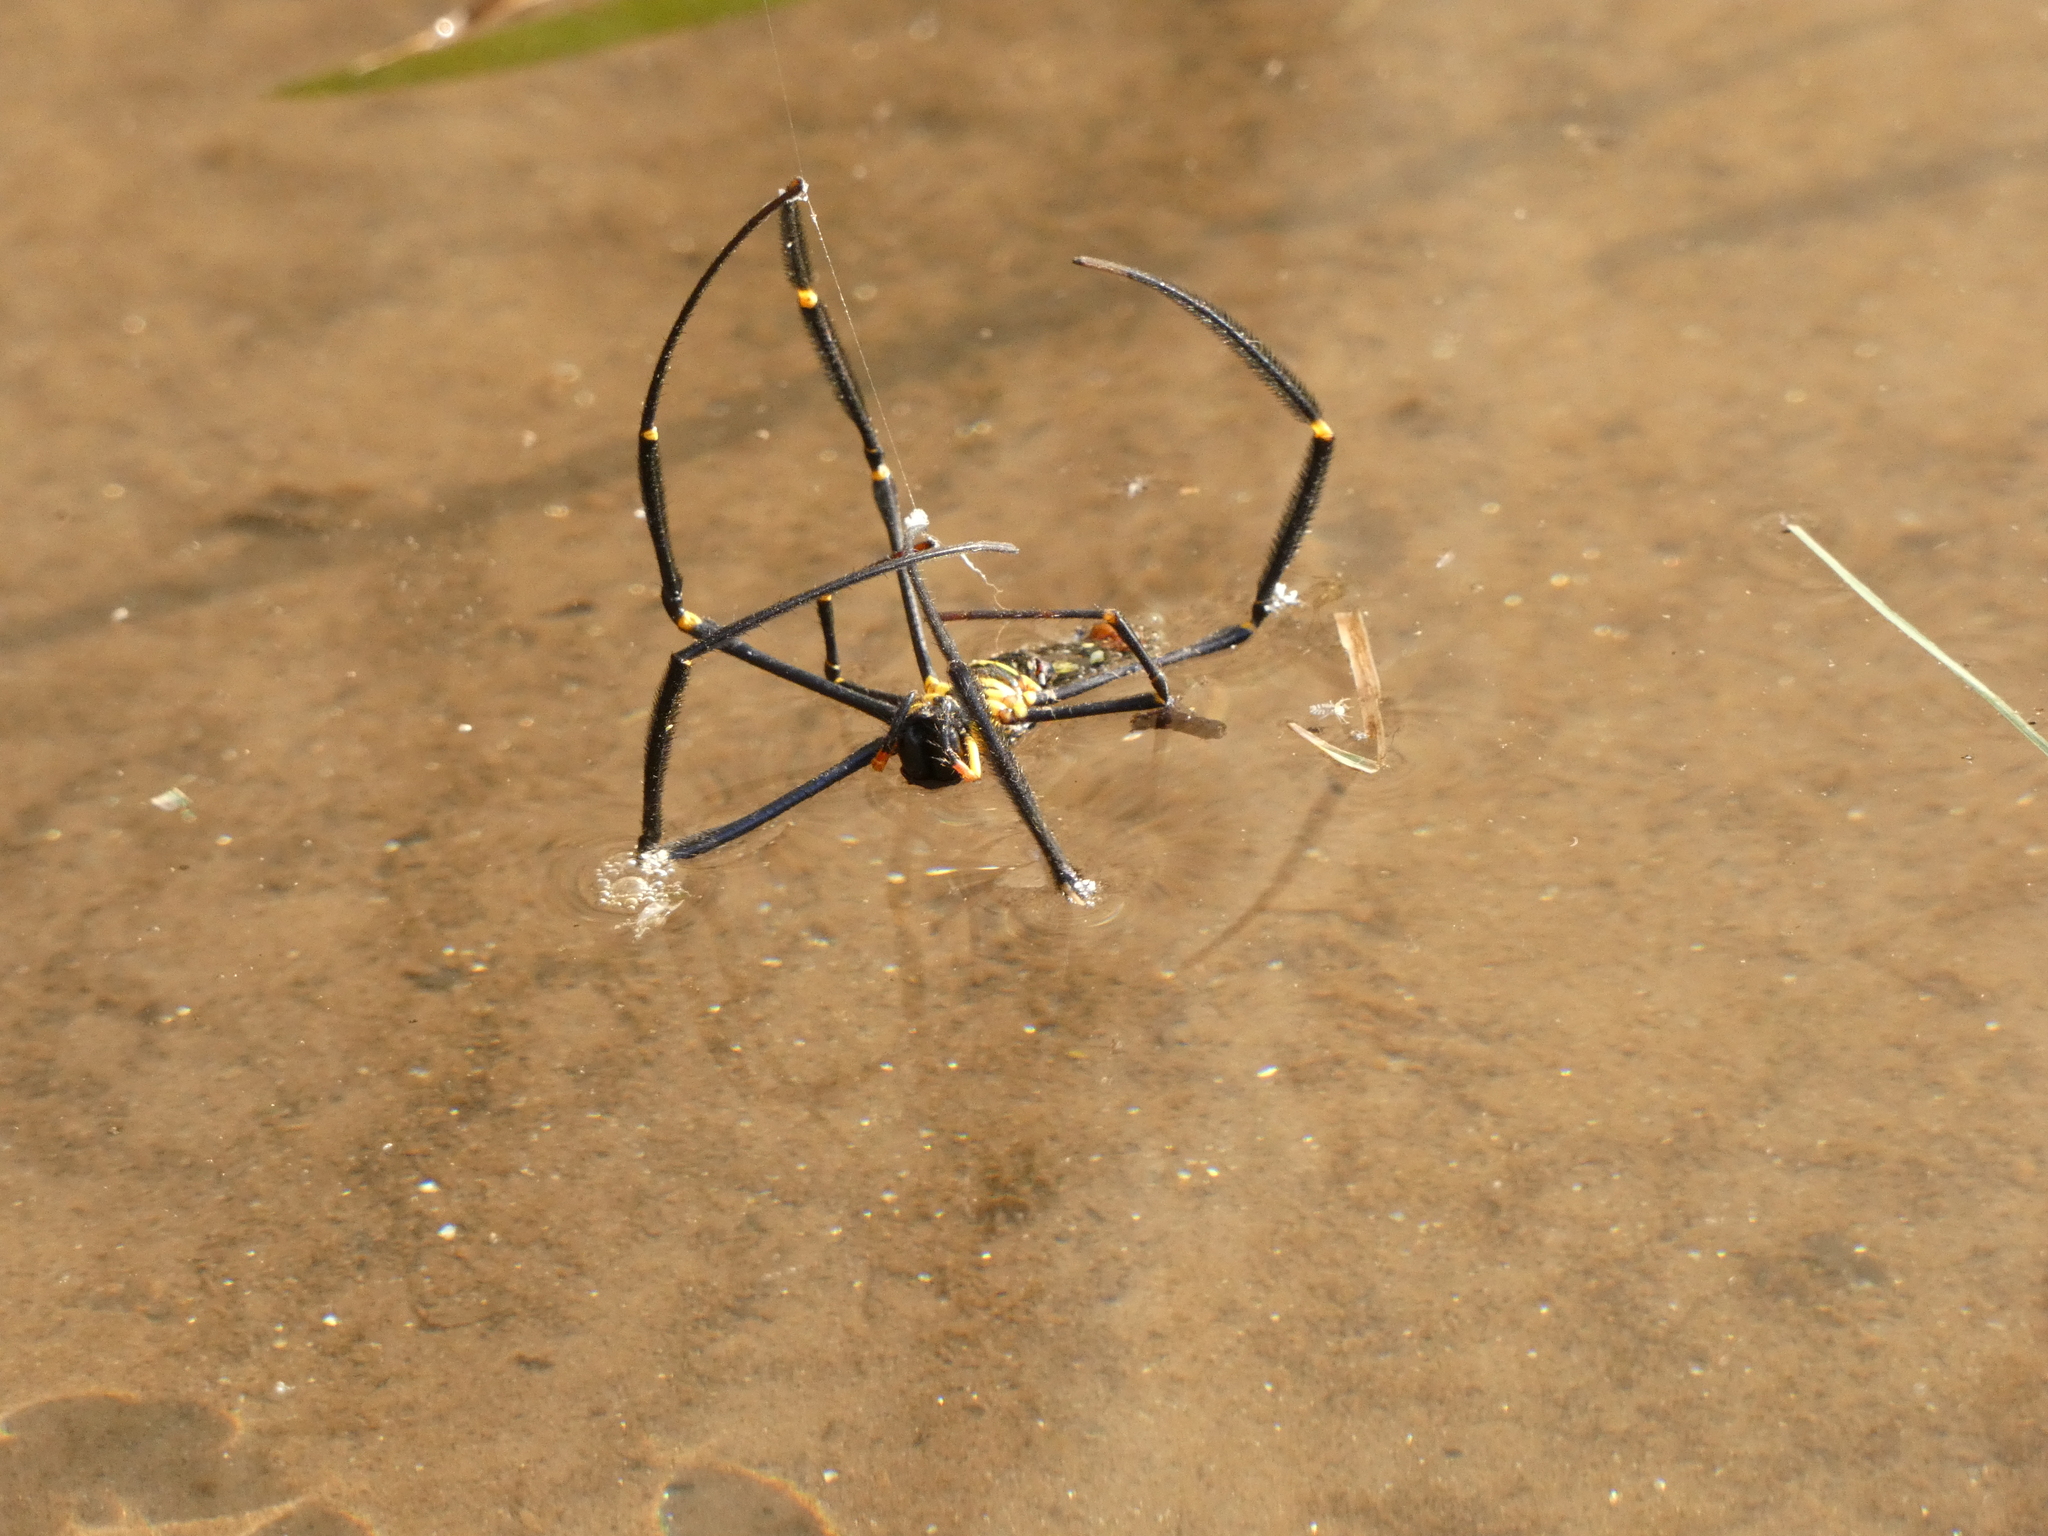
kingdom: Animalia
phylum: Arthropoda
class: Arachnida
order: Araneae
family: Araneidae
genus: Nephila
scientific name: Nephila pilipes
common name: Giant golden orb weaver
